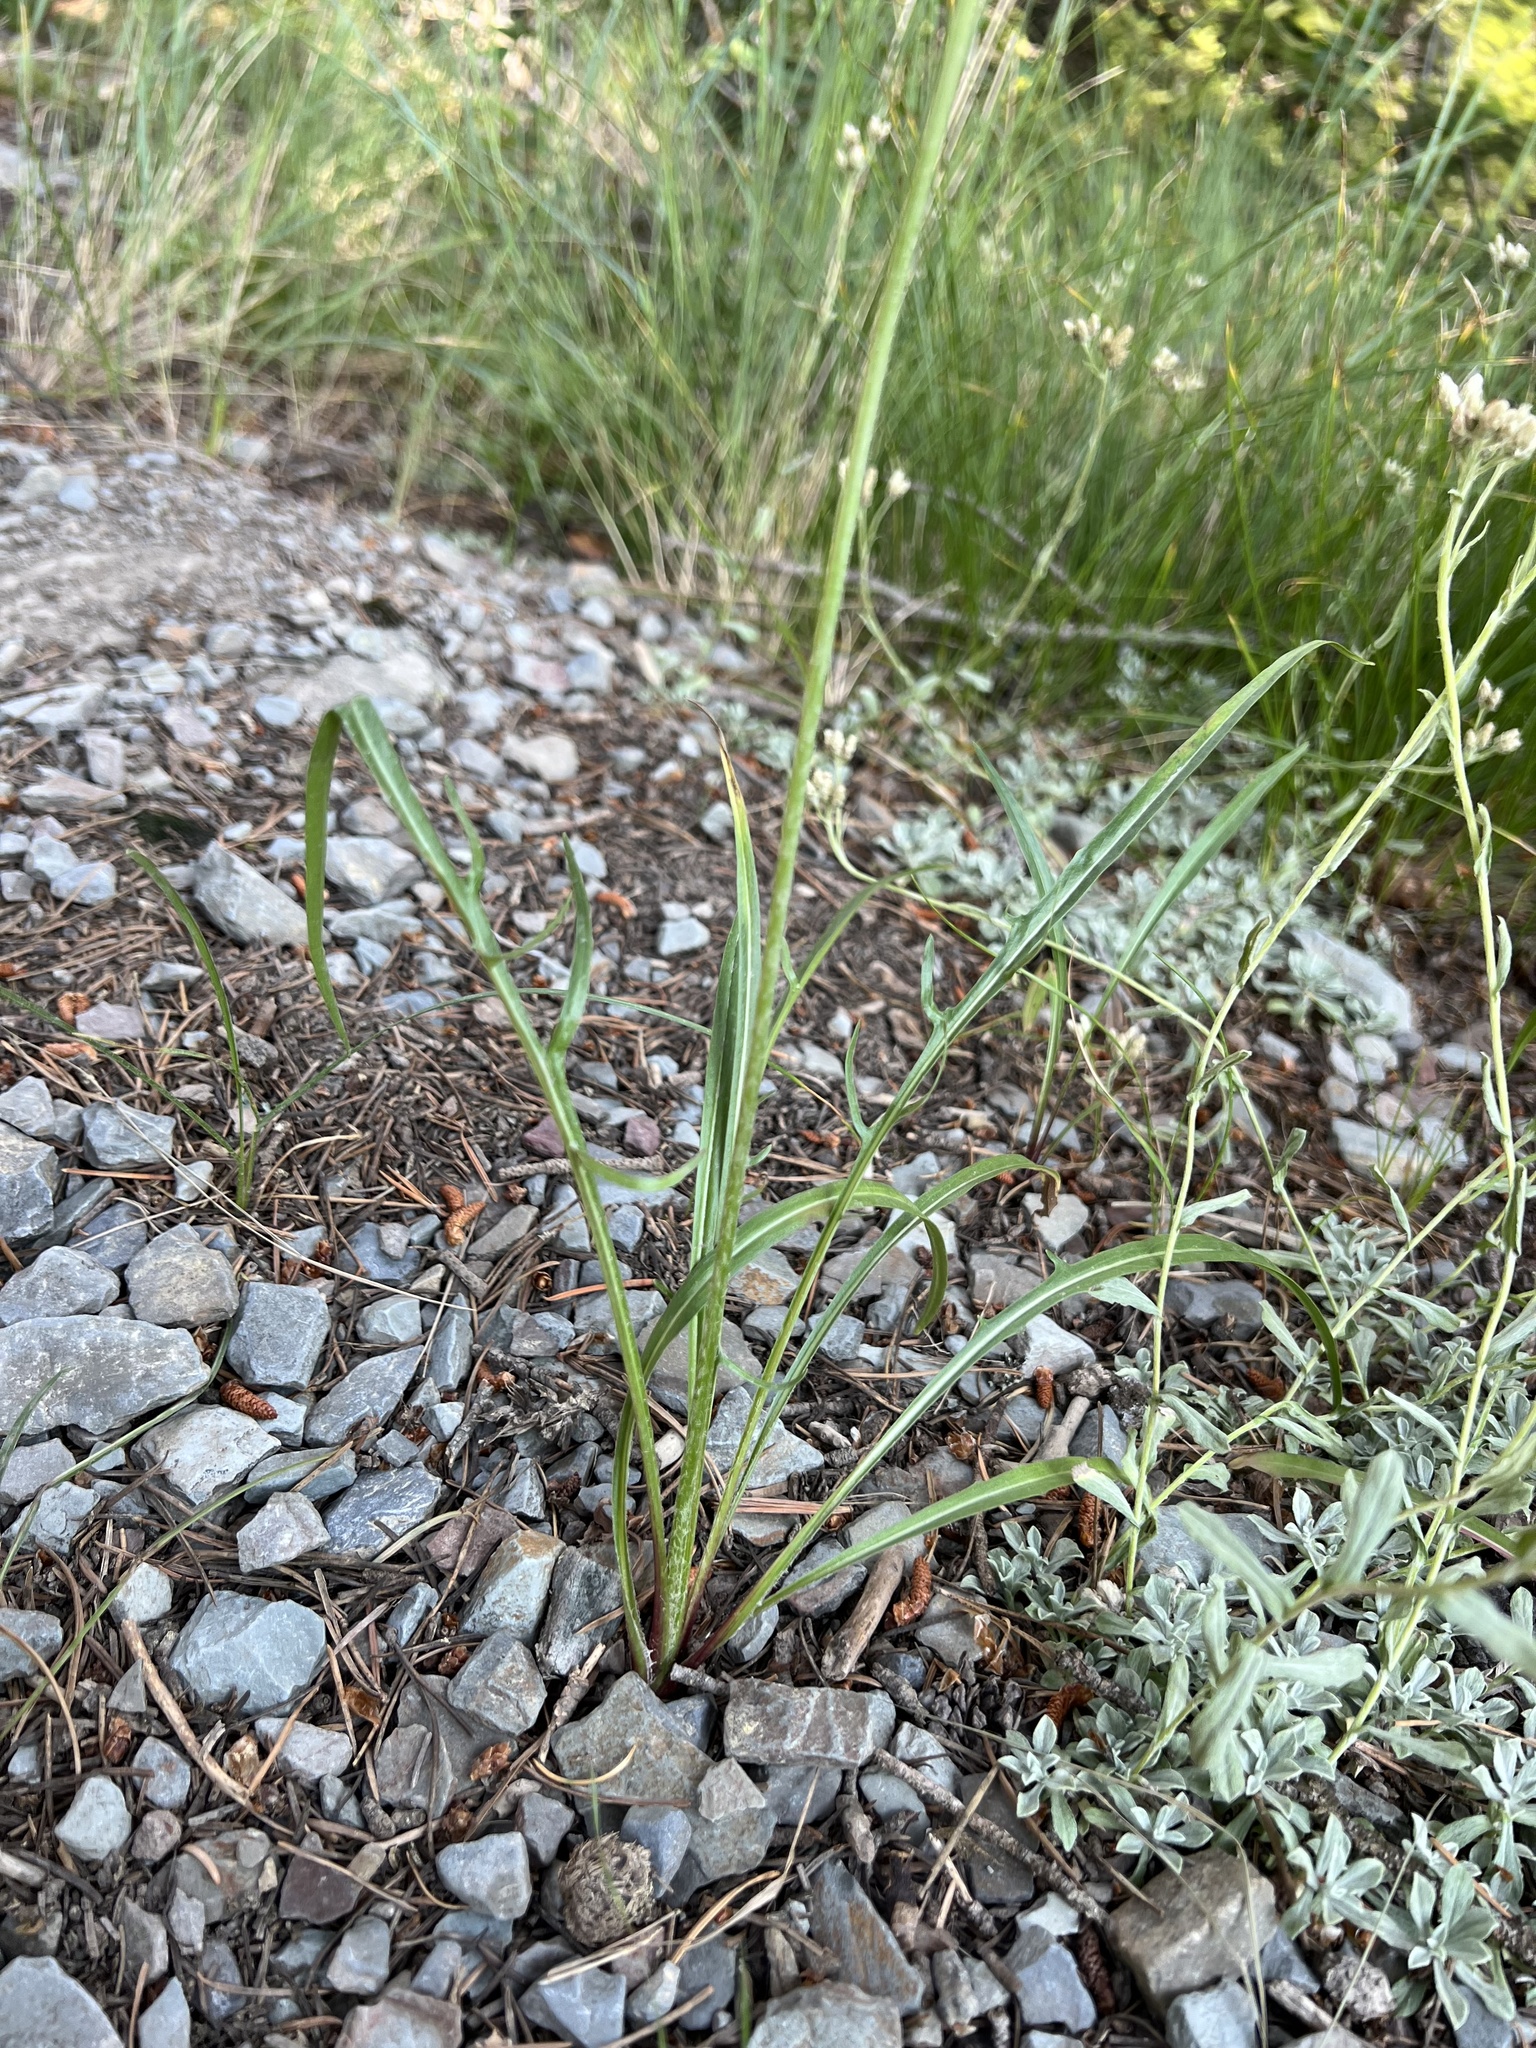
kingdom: Plantae
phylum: Tracheophyta
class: Magnoliopsida
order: Asterales
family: Asteraceae
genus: Agoseris
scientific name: Agoseris aurantiaca
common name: Mountain agoseris
